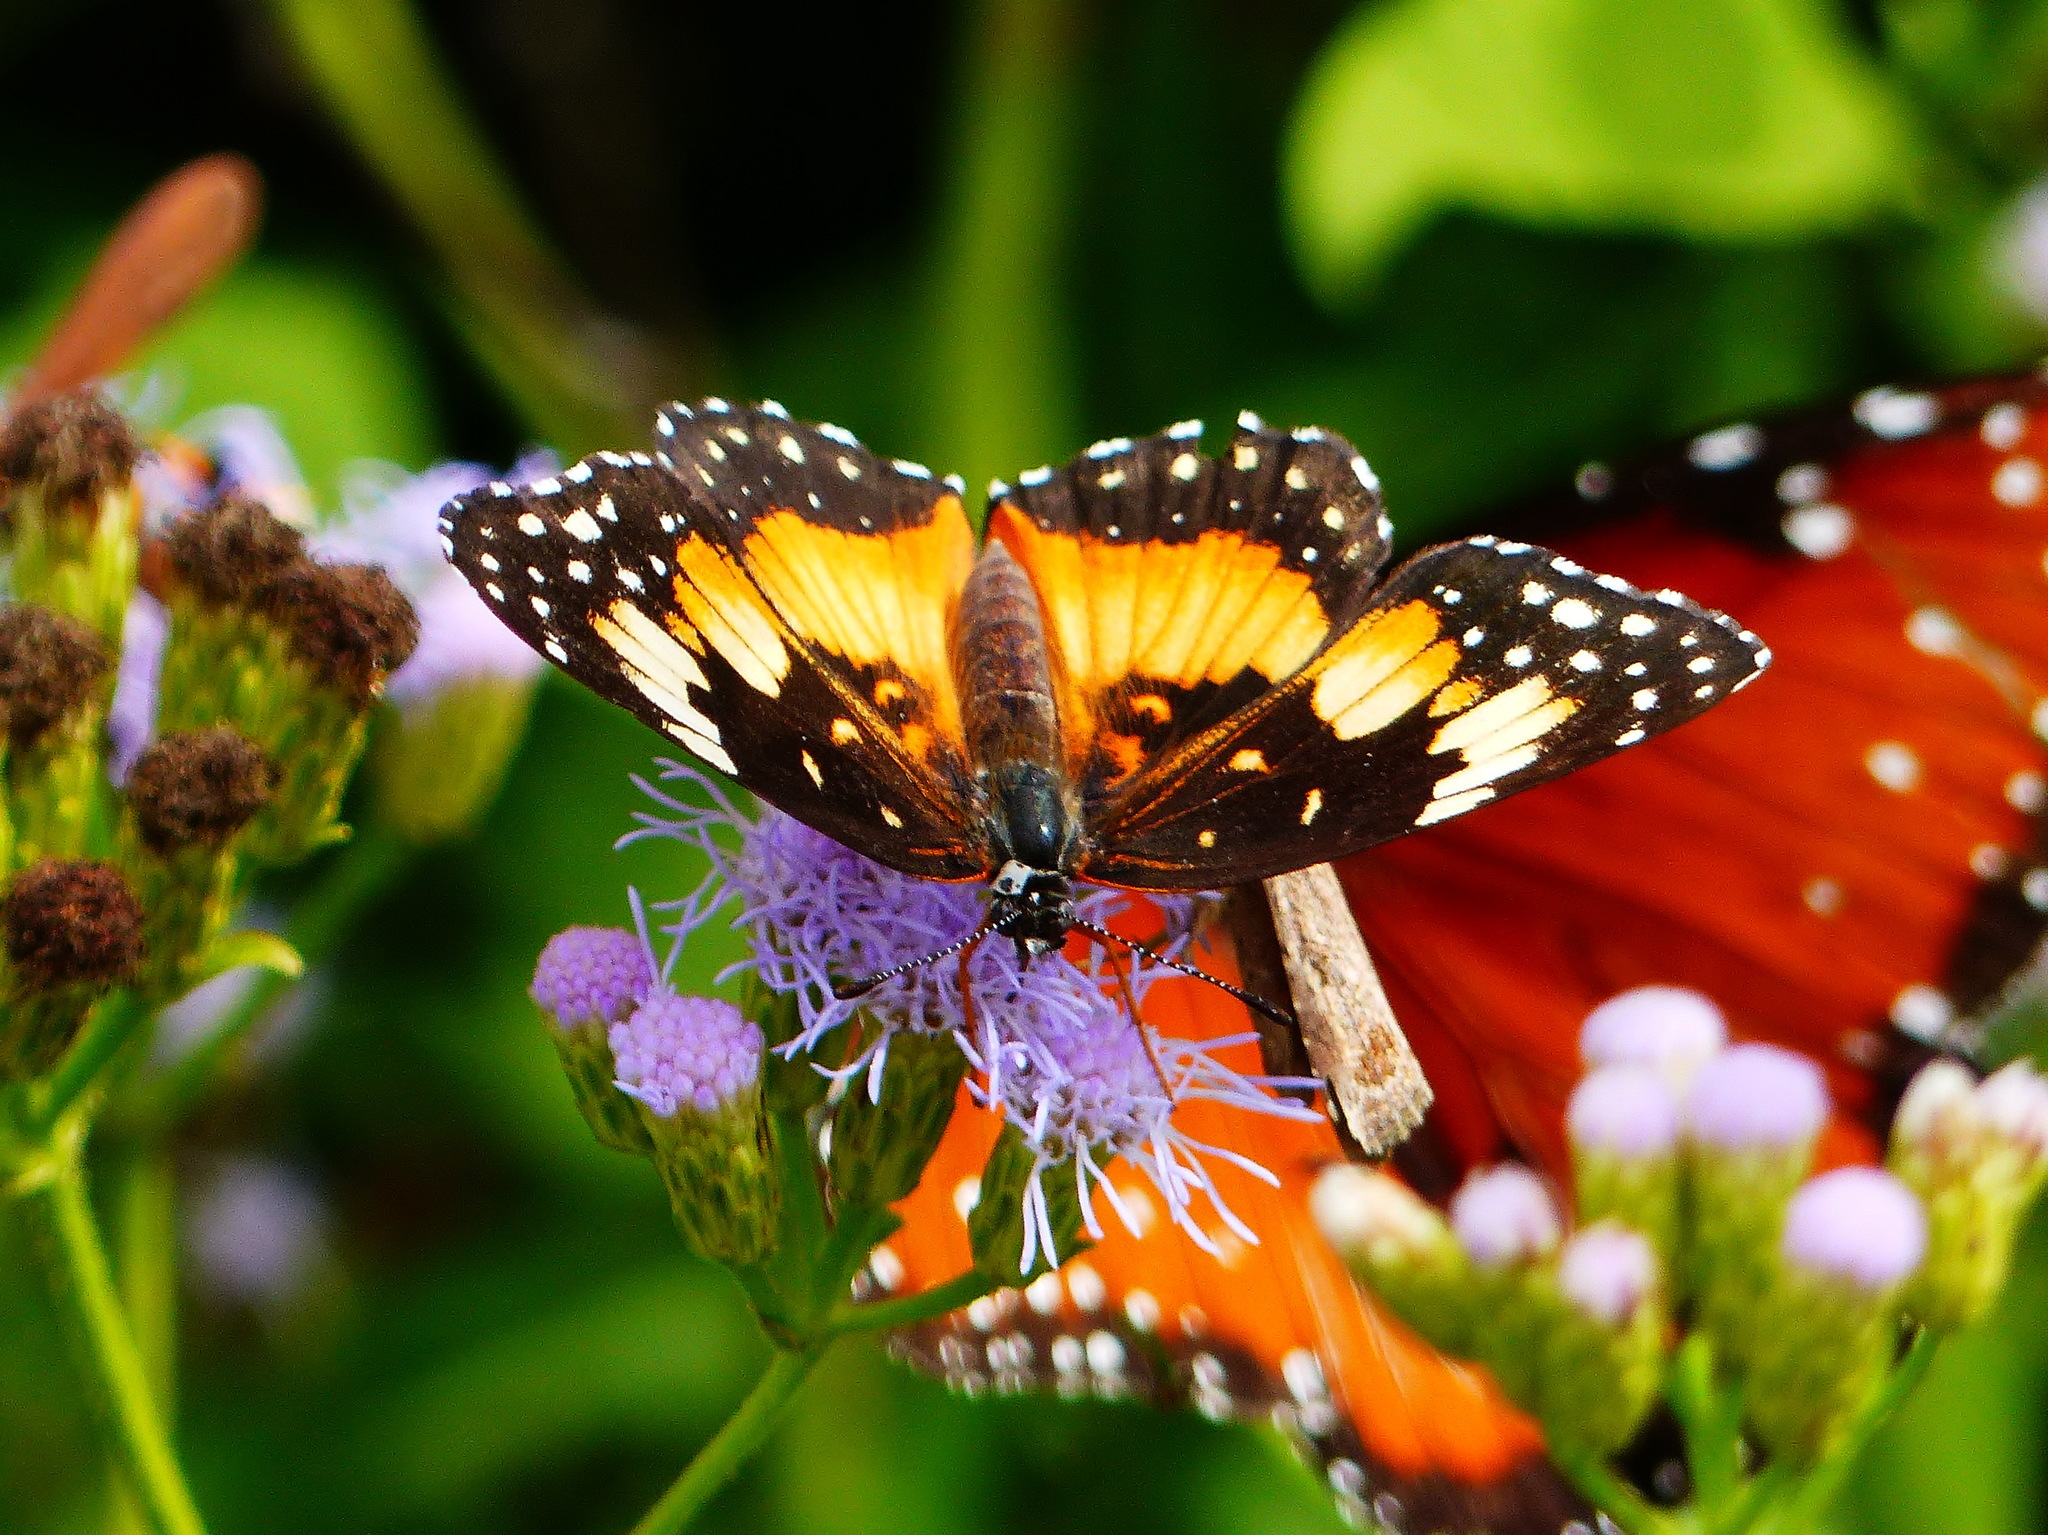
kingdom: Animalia
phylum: Arthropoda
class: Insecta
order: Lepidoptera
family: Nymphalidae
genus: Chlosyne
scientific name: Chlosyne lacinia
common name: Bordered patch
